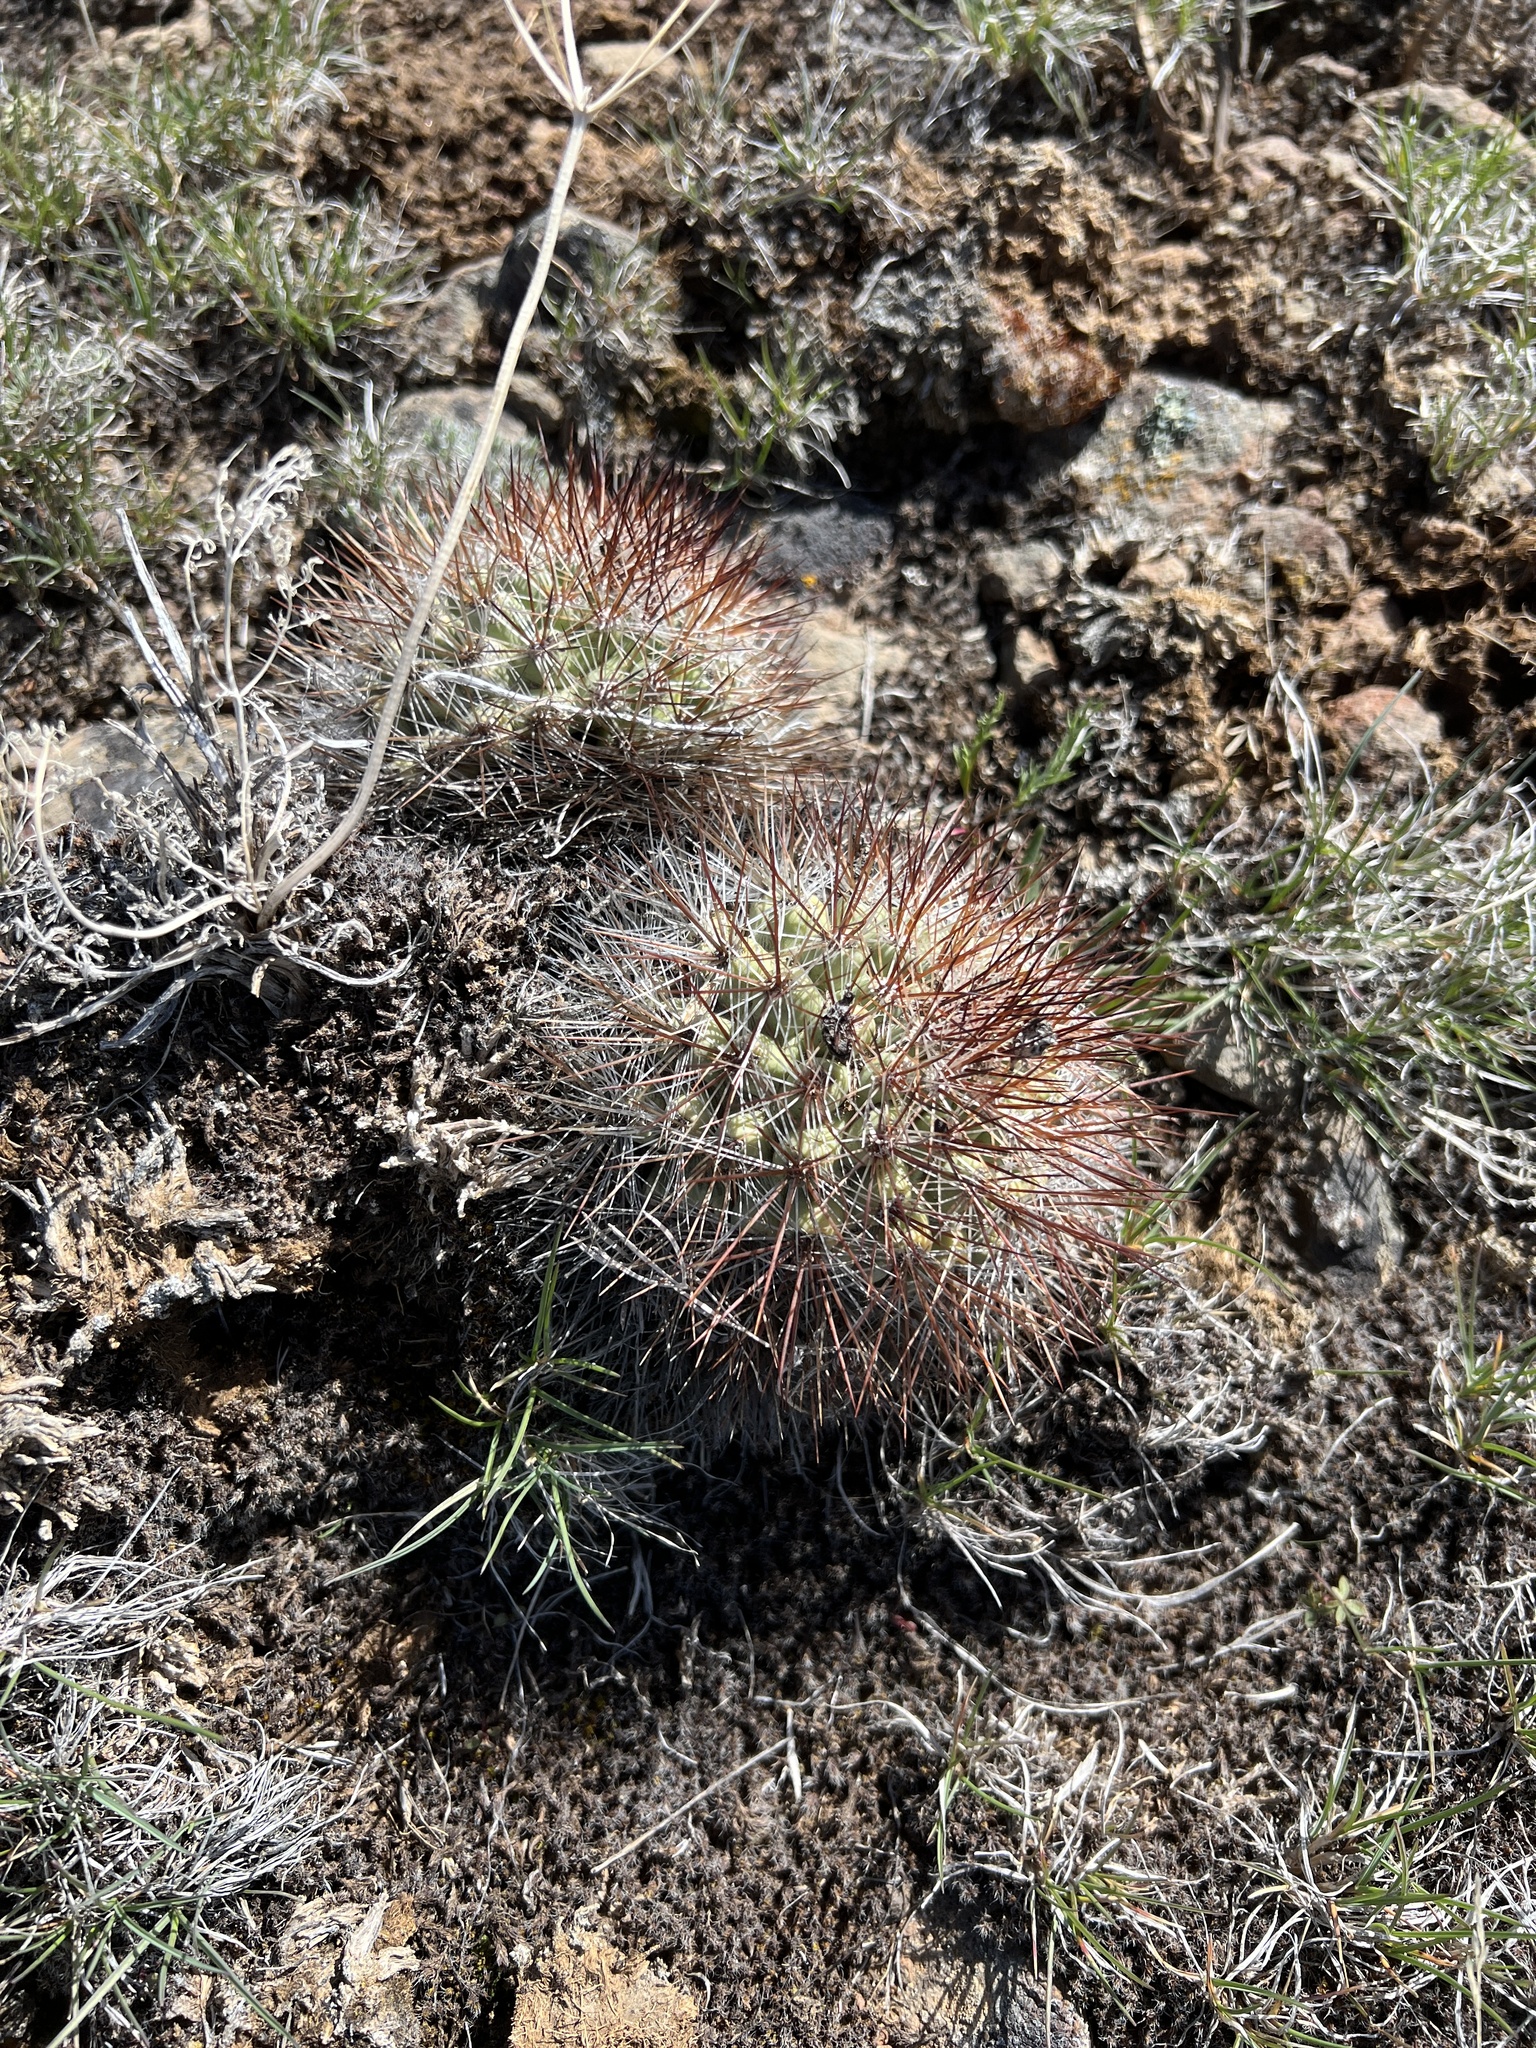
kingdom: Plantae
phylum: Tracheophyta
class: Magnoliopsida
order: Caryophyllales
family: Cactaceae
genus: Pediocactus
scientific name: Pediocactus nigrispinus
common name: Simpson's hedgehog cactus
